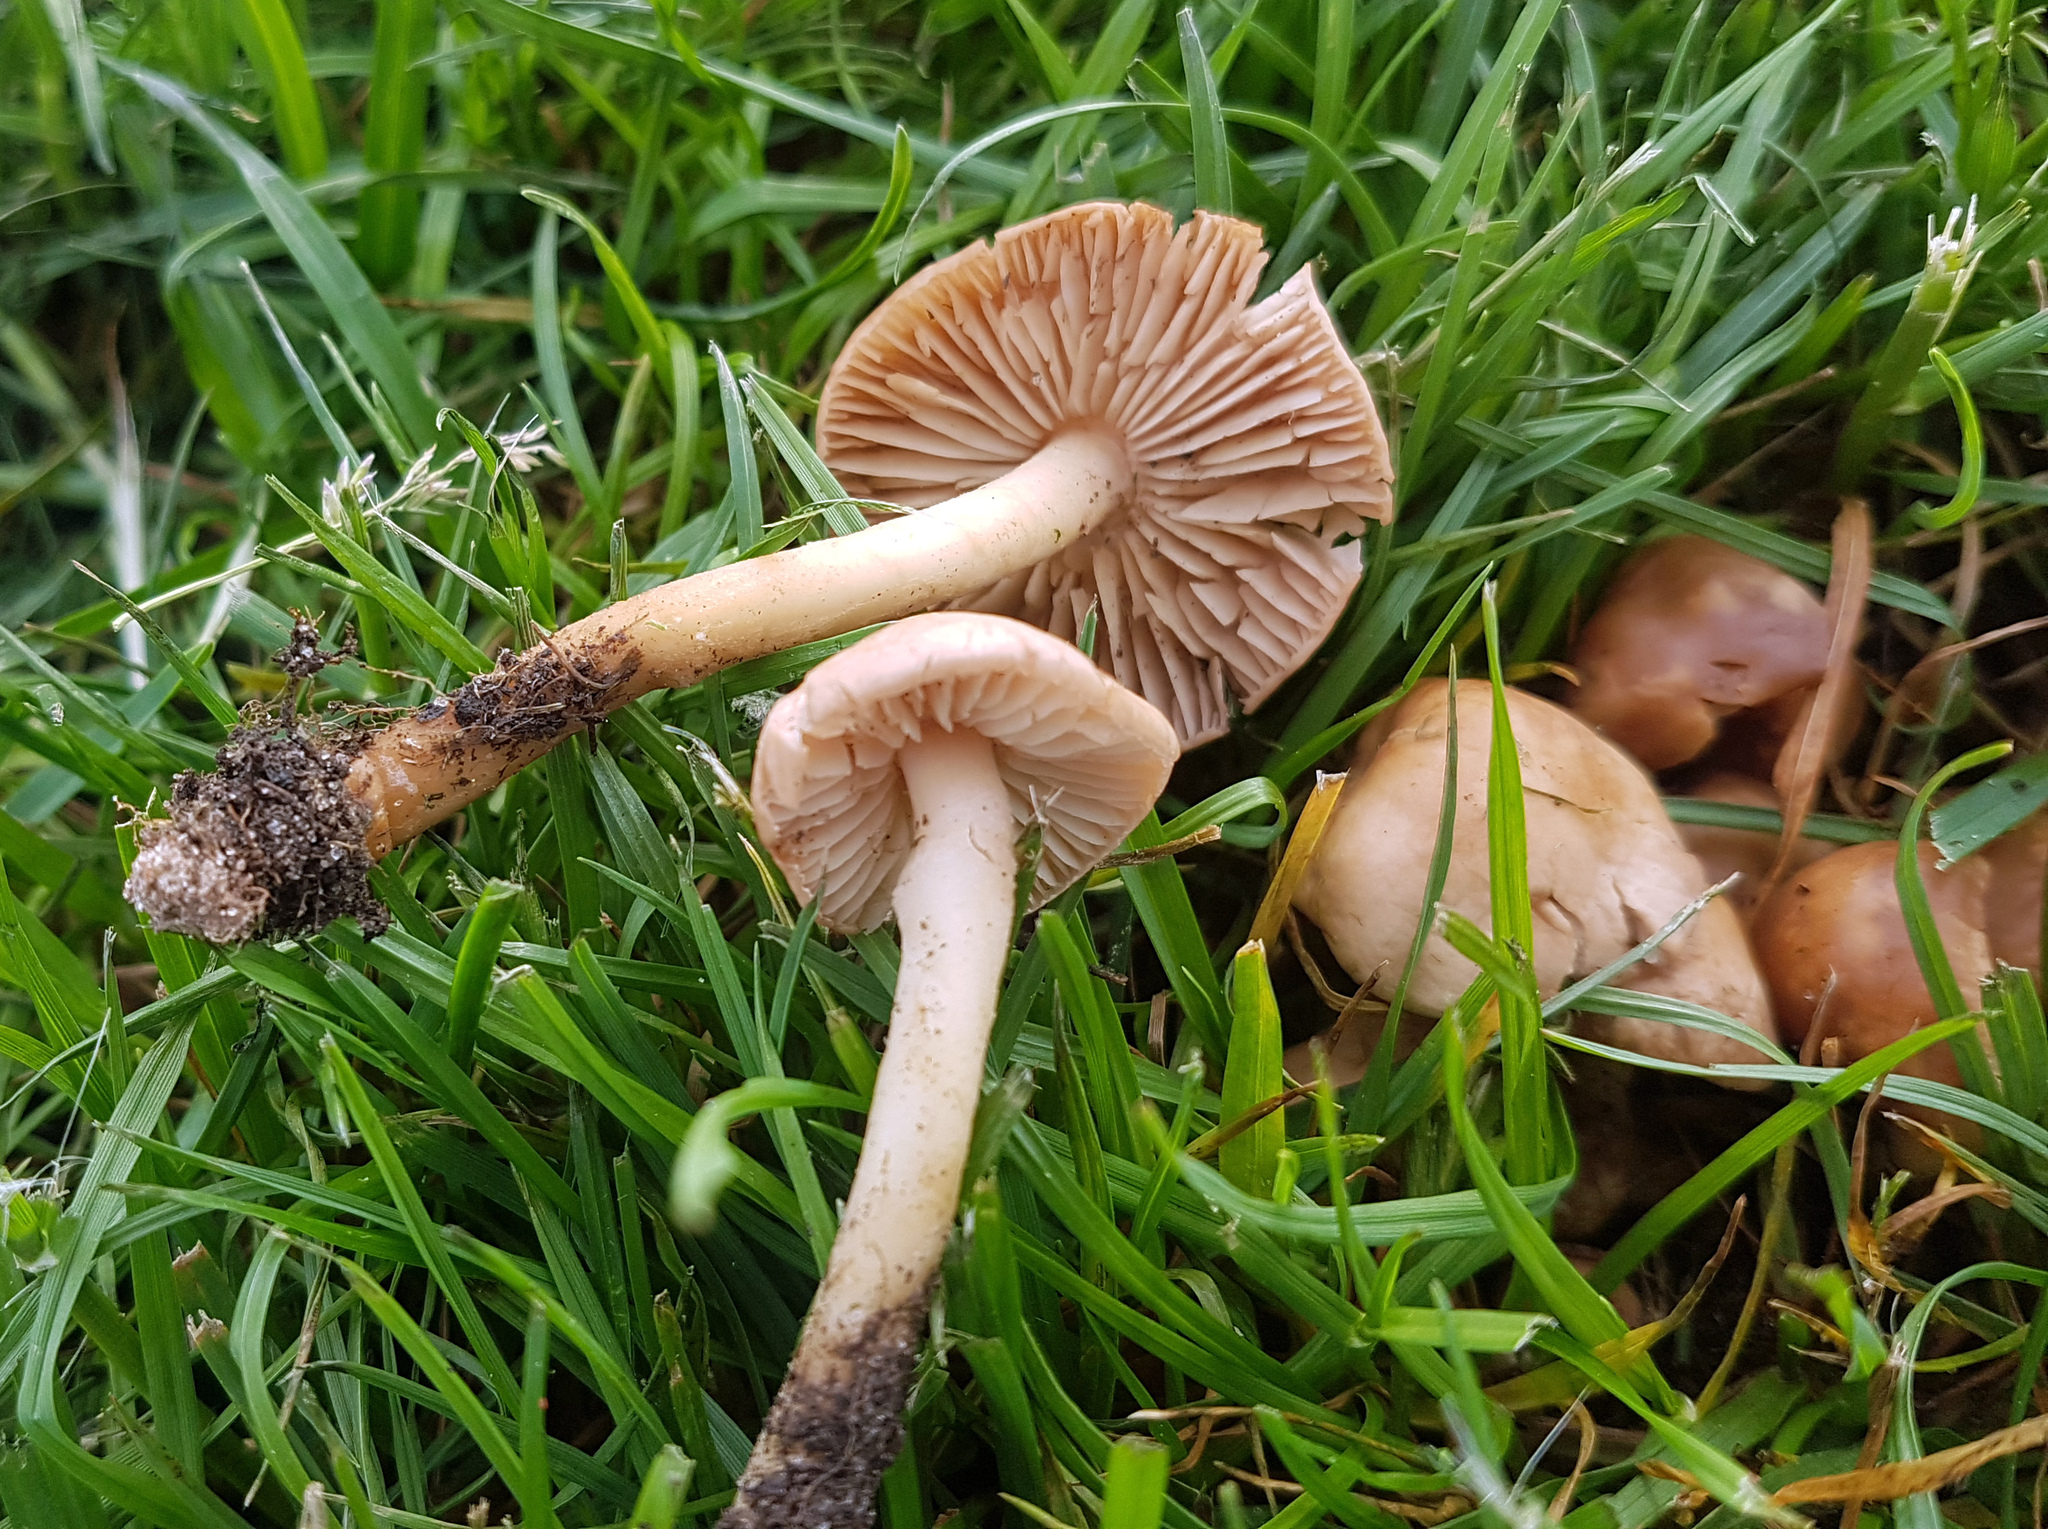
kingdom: Fungi
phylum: Basidiomycota
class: Agaricomycetes
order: Agaricales
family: Marasmiaceae
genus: Marasmius
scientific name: Marasmius oreades
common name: Fairy ring champignon
